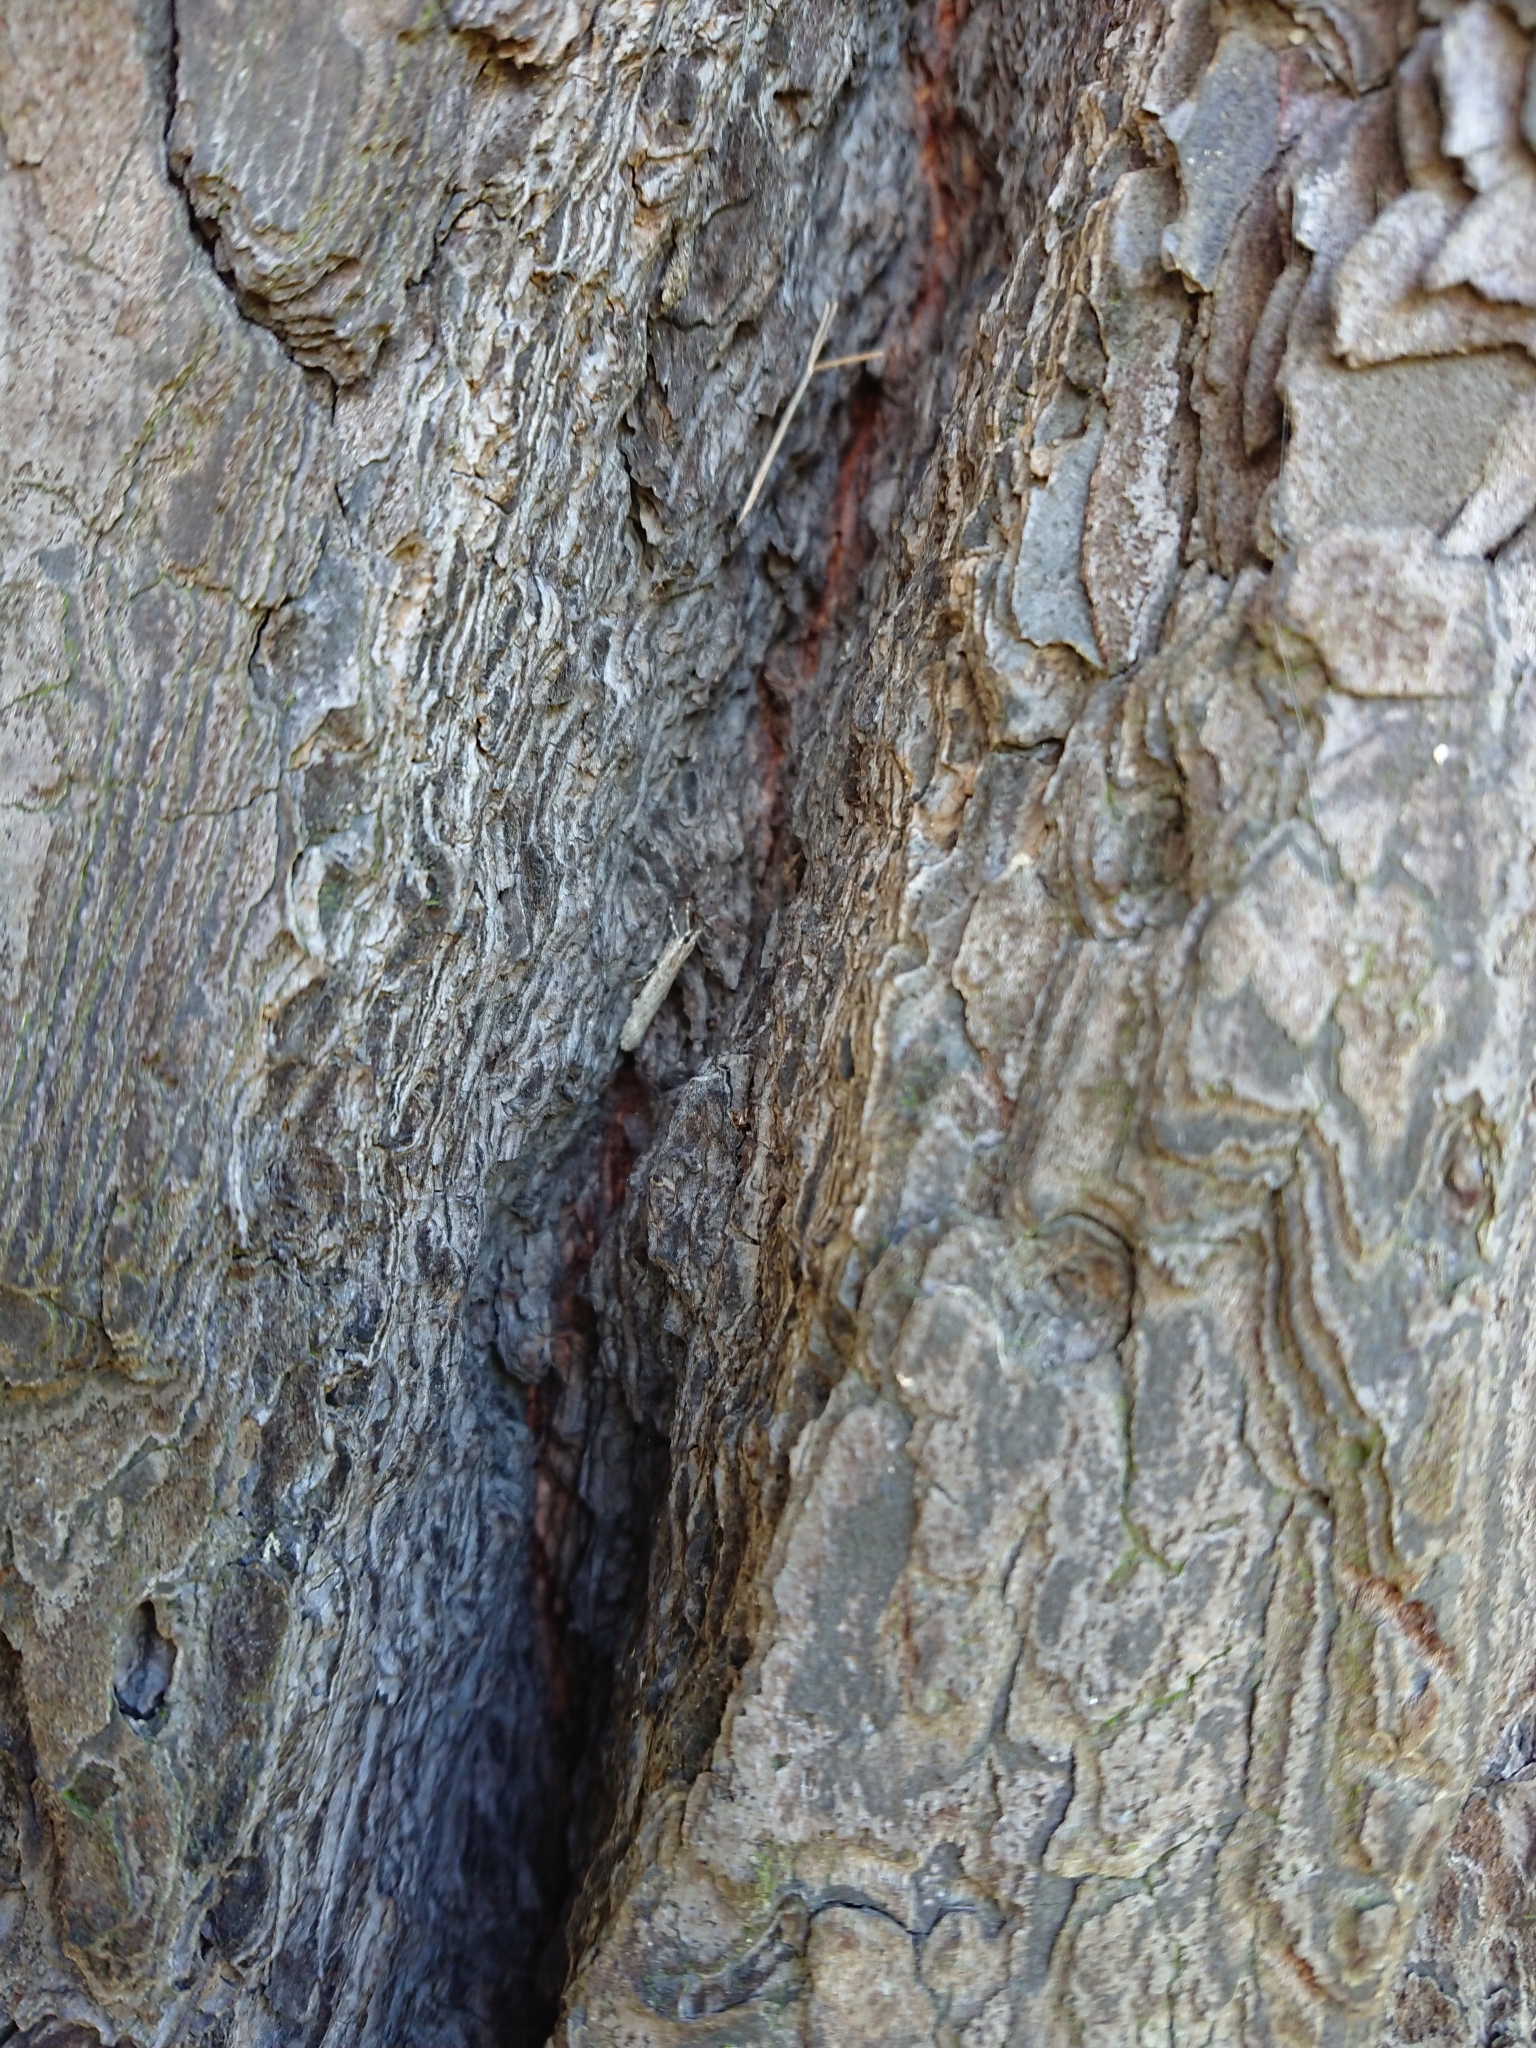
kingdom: Animalia
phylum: Arthropoda
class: Insecta
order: Lepidoptera
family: Crambidae
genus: Scoparia
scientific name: Scoparia chalicodes
